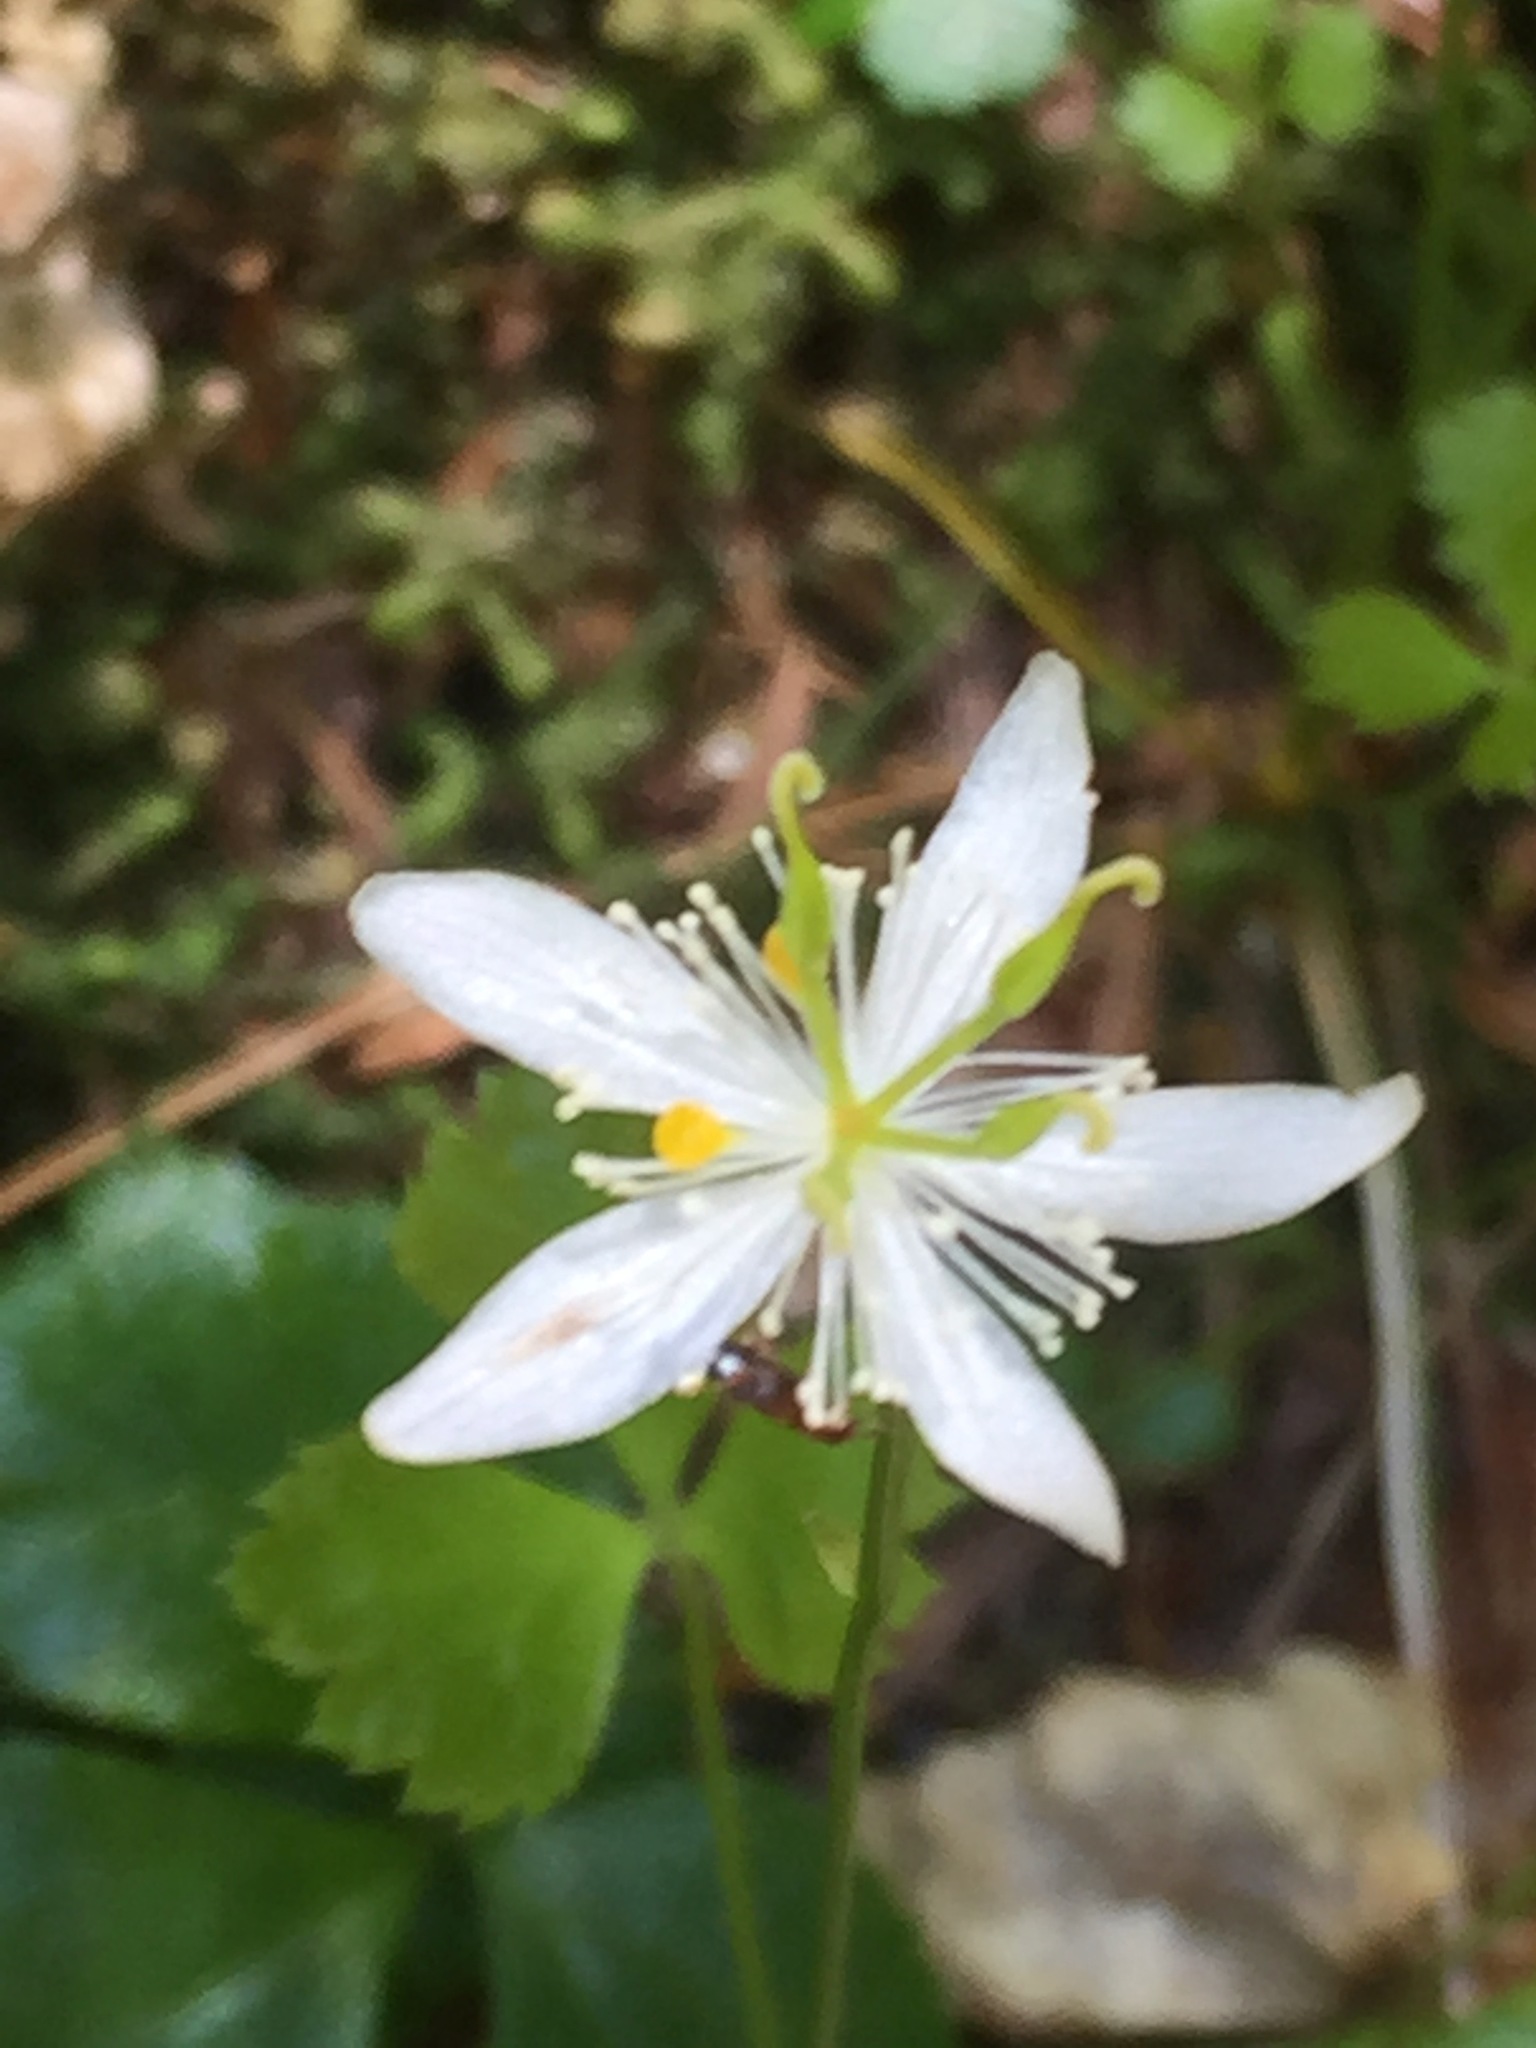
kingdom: Plantae
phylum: Tracheophyta
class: Magnoliopsida
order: Ranunculales
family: Ranunculaceae
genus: Coptis
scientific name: Coptis trifolia
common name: Canker-root
